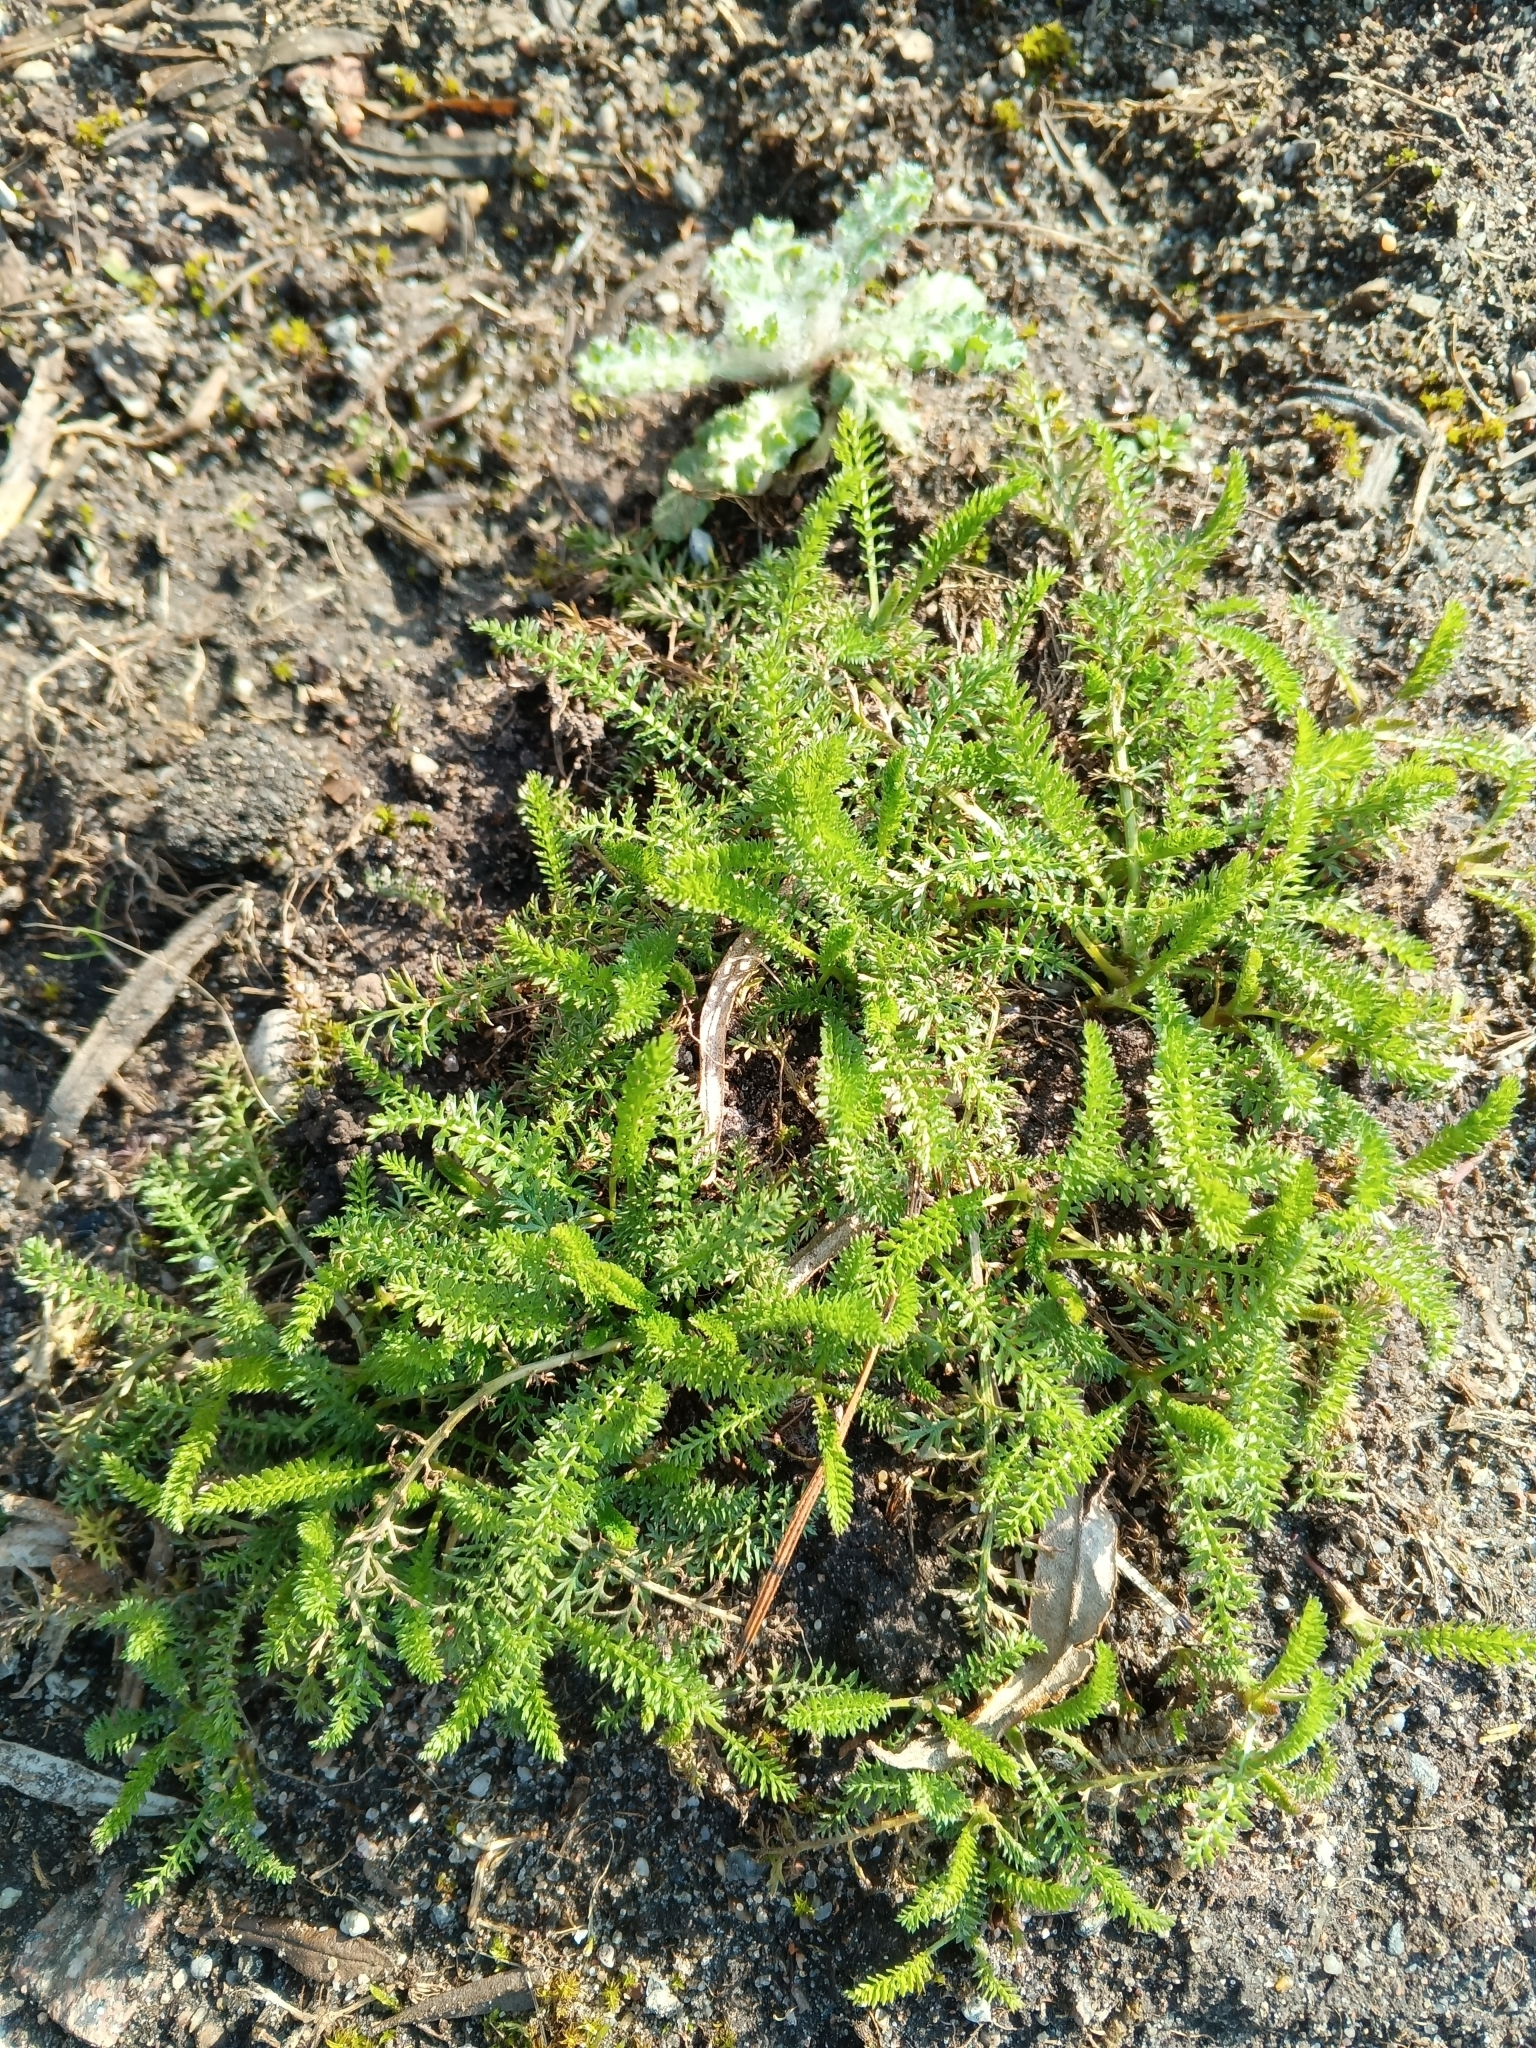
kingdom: Plantae
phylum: Tracheophyta
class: Magnoliopsida
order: Asterales
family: Asteraceae
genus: Achillea
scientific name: Achillea millefolium
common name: Yarrow
